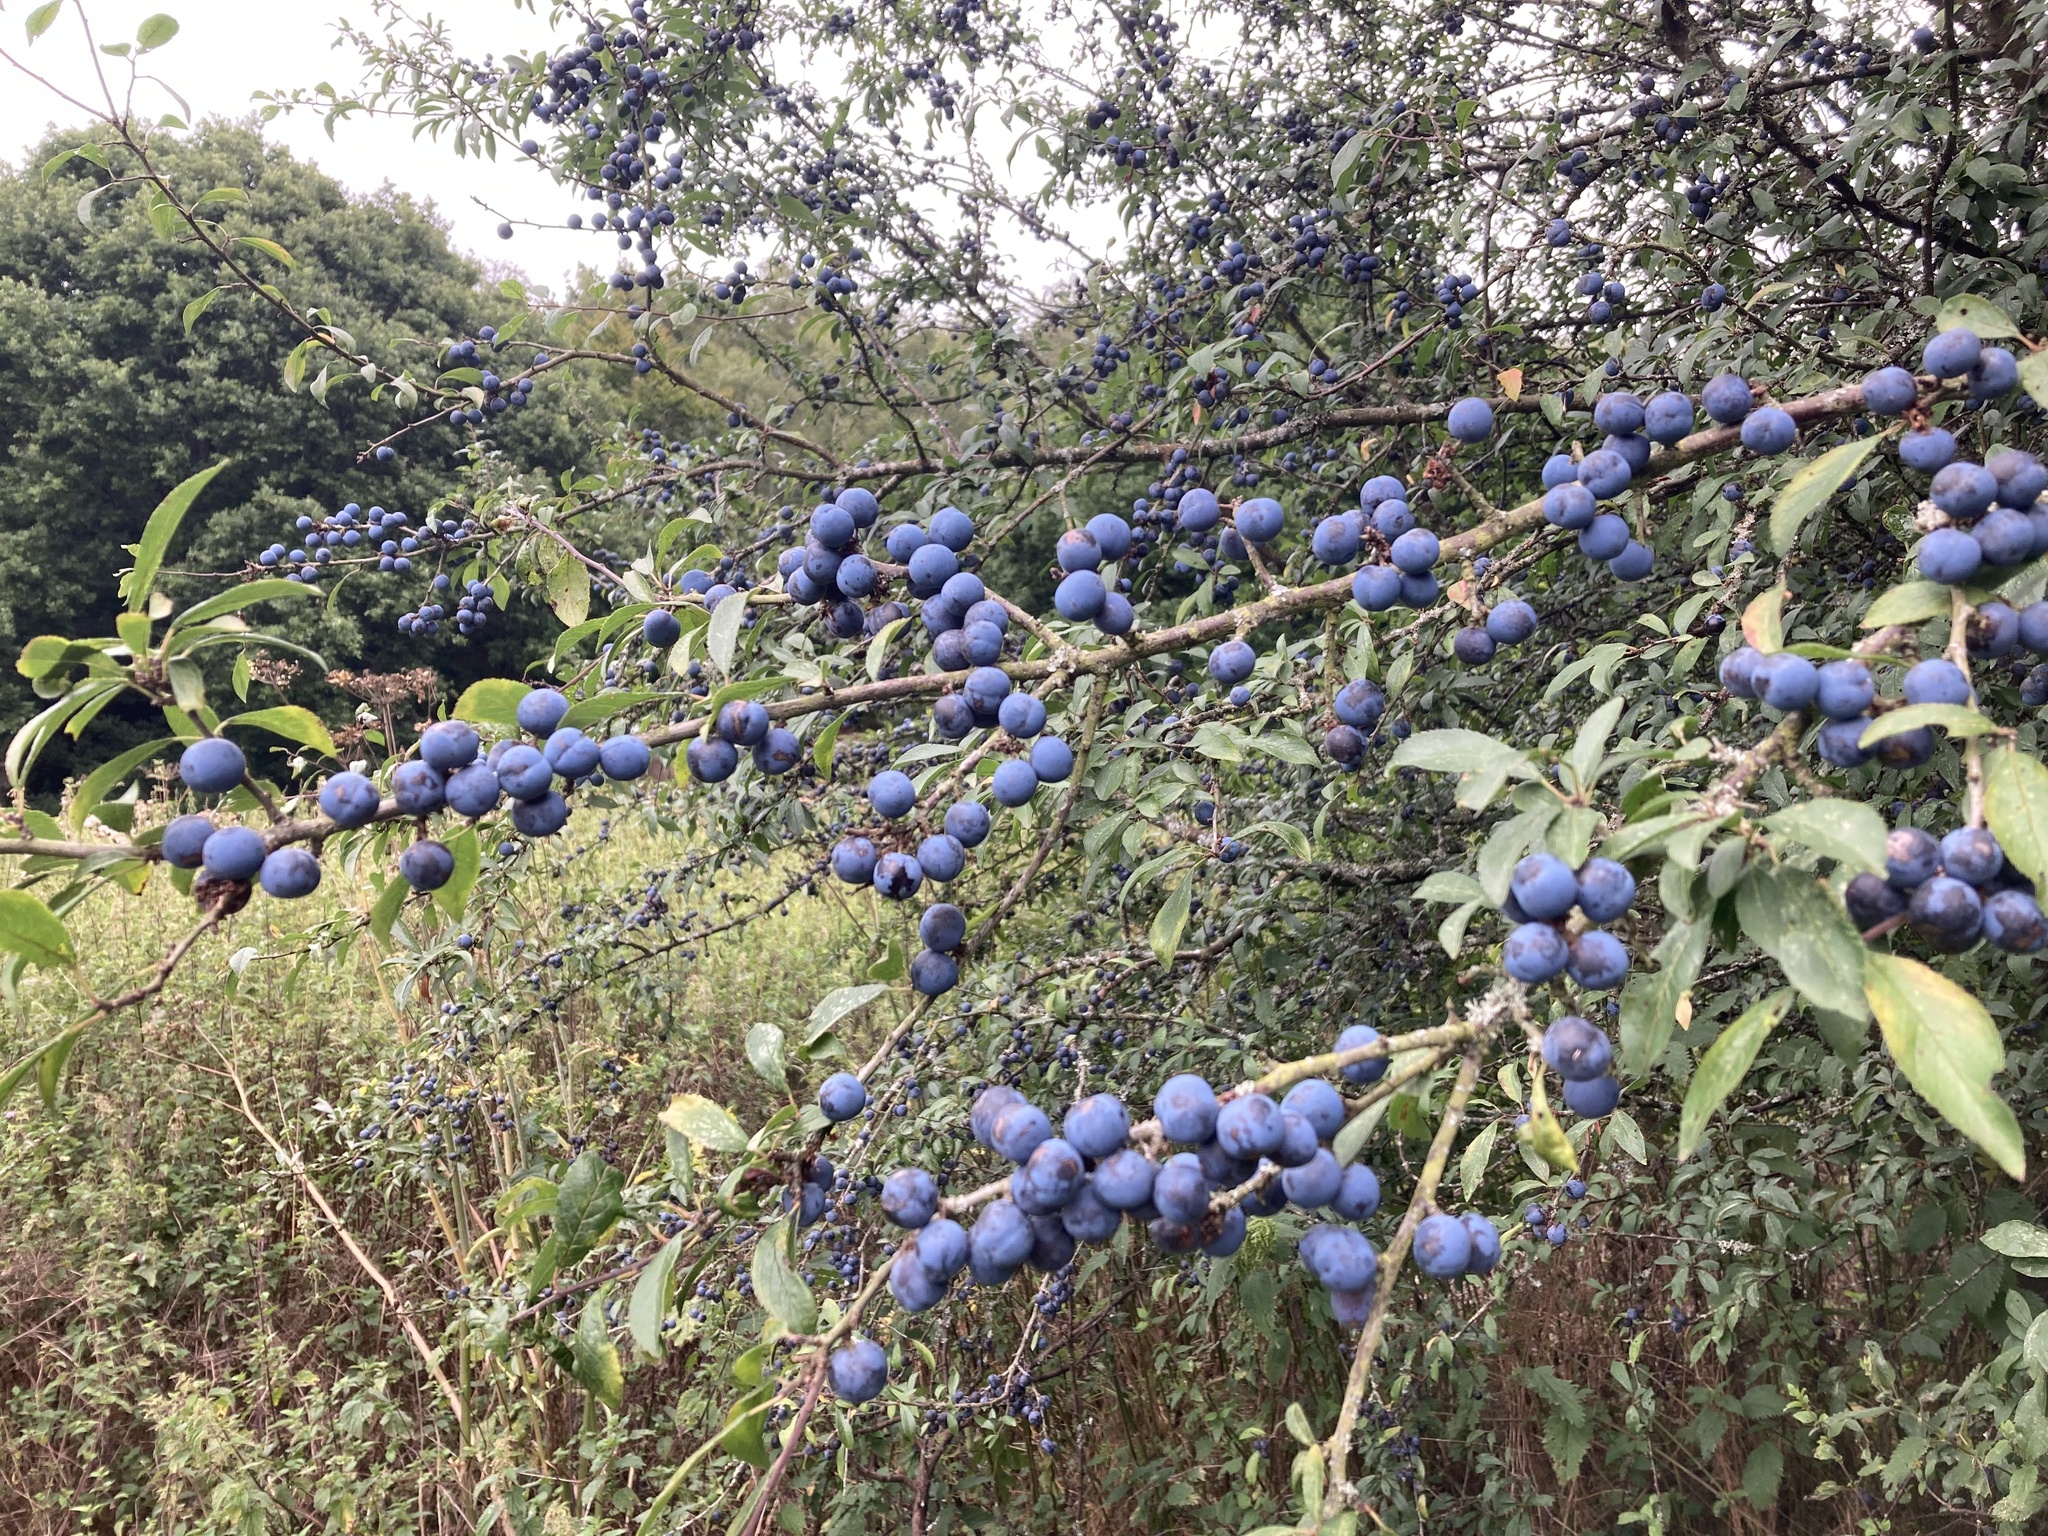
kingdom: Plantae
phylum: Tracheophyta
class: Magnoliopsida
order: Rosales
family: Rosaceae
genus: Prunus
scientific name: Prunus spinosa
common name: Blackthorn
